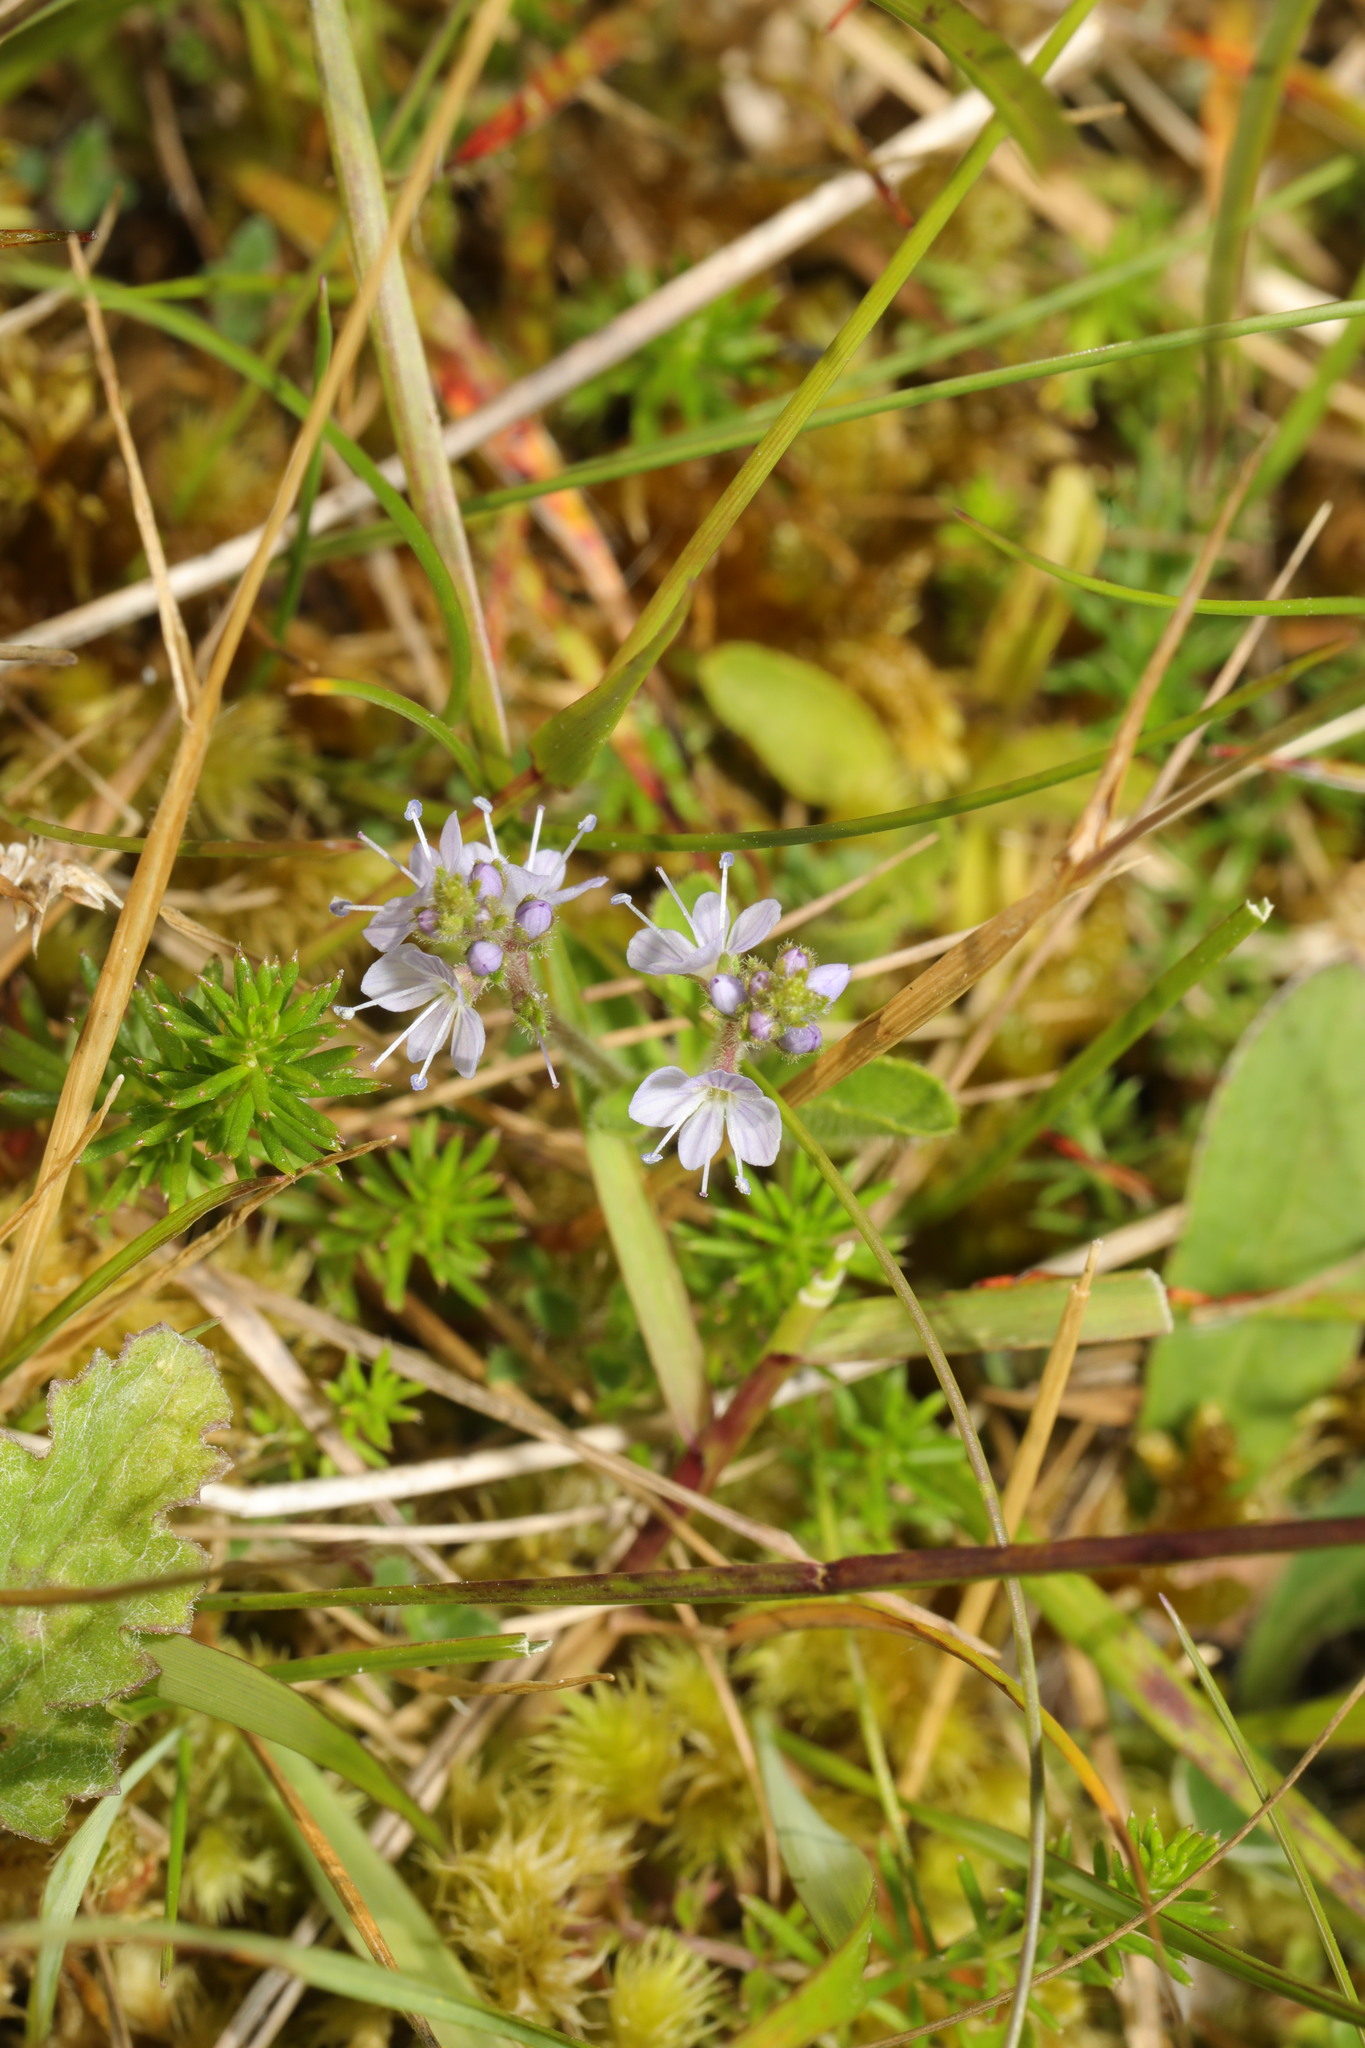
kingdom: Plantae
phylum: Tracheophyta
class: Magnoliopsida
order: Lamiales
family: Plantaginaceae
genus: Veronica
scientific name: Veronica officinalis
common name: Common speedwell
